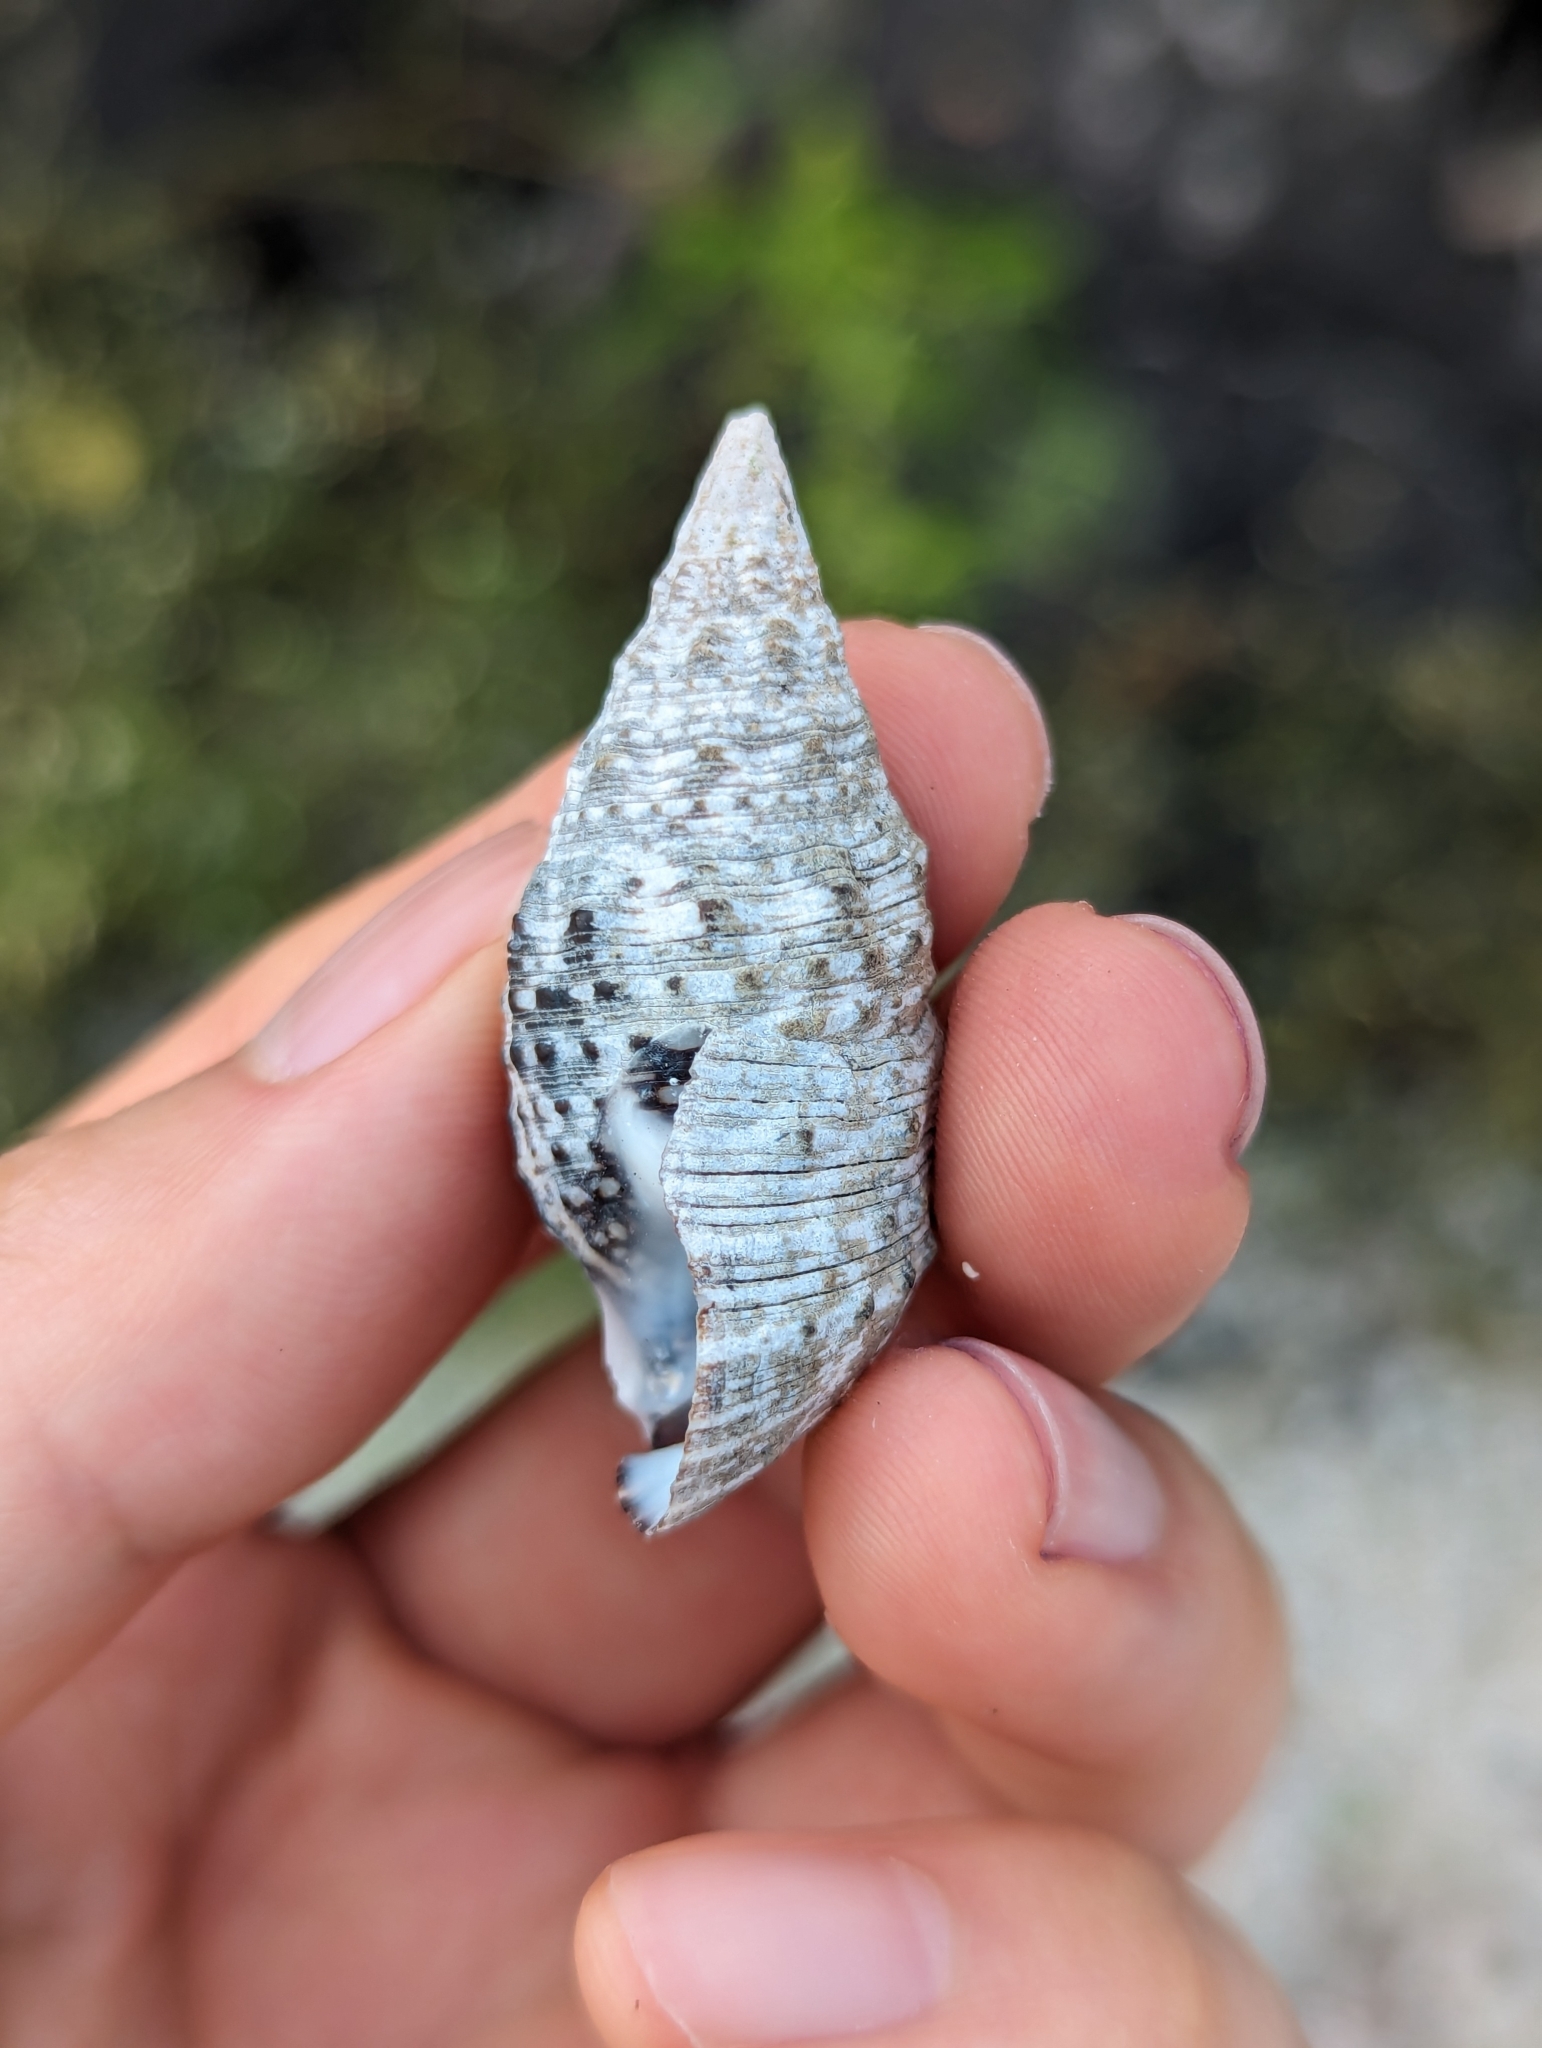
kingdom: Animalia
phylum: Mollusca
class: Gastropoda
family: Cerithiidae
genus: Cerithium
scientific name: Cerithium adustum
